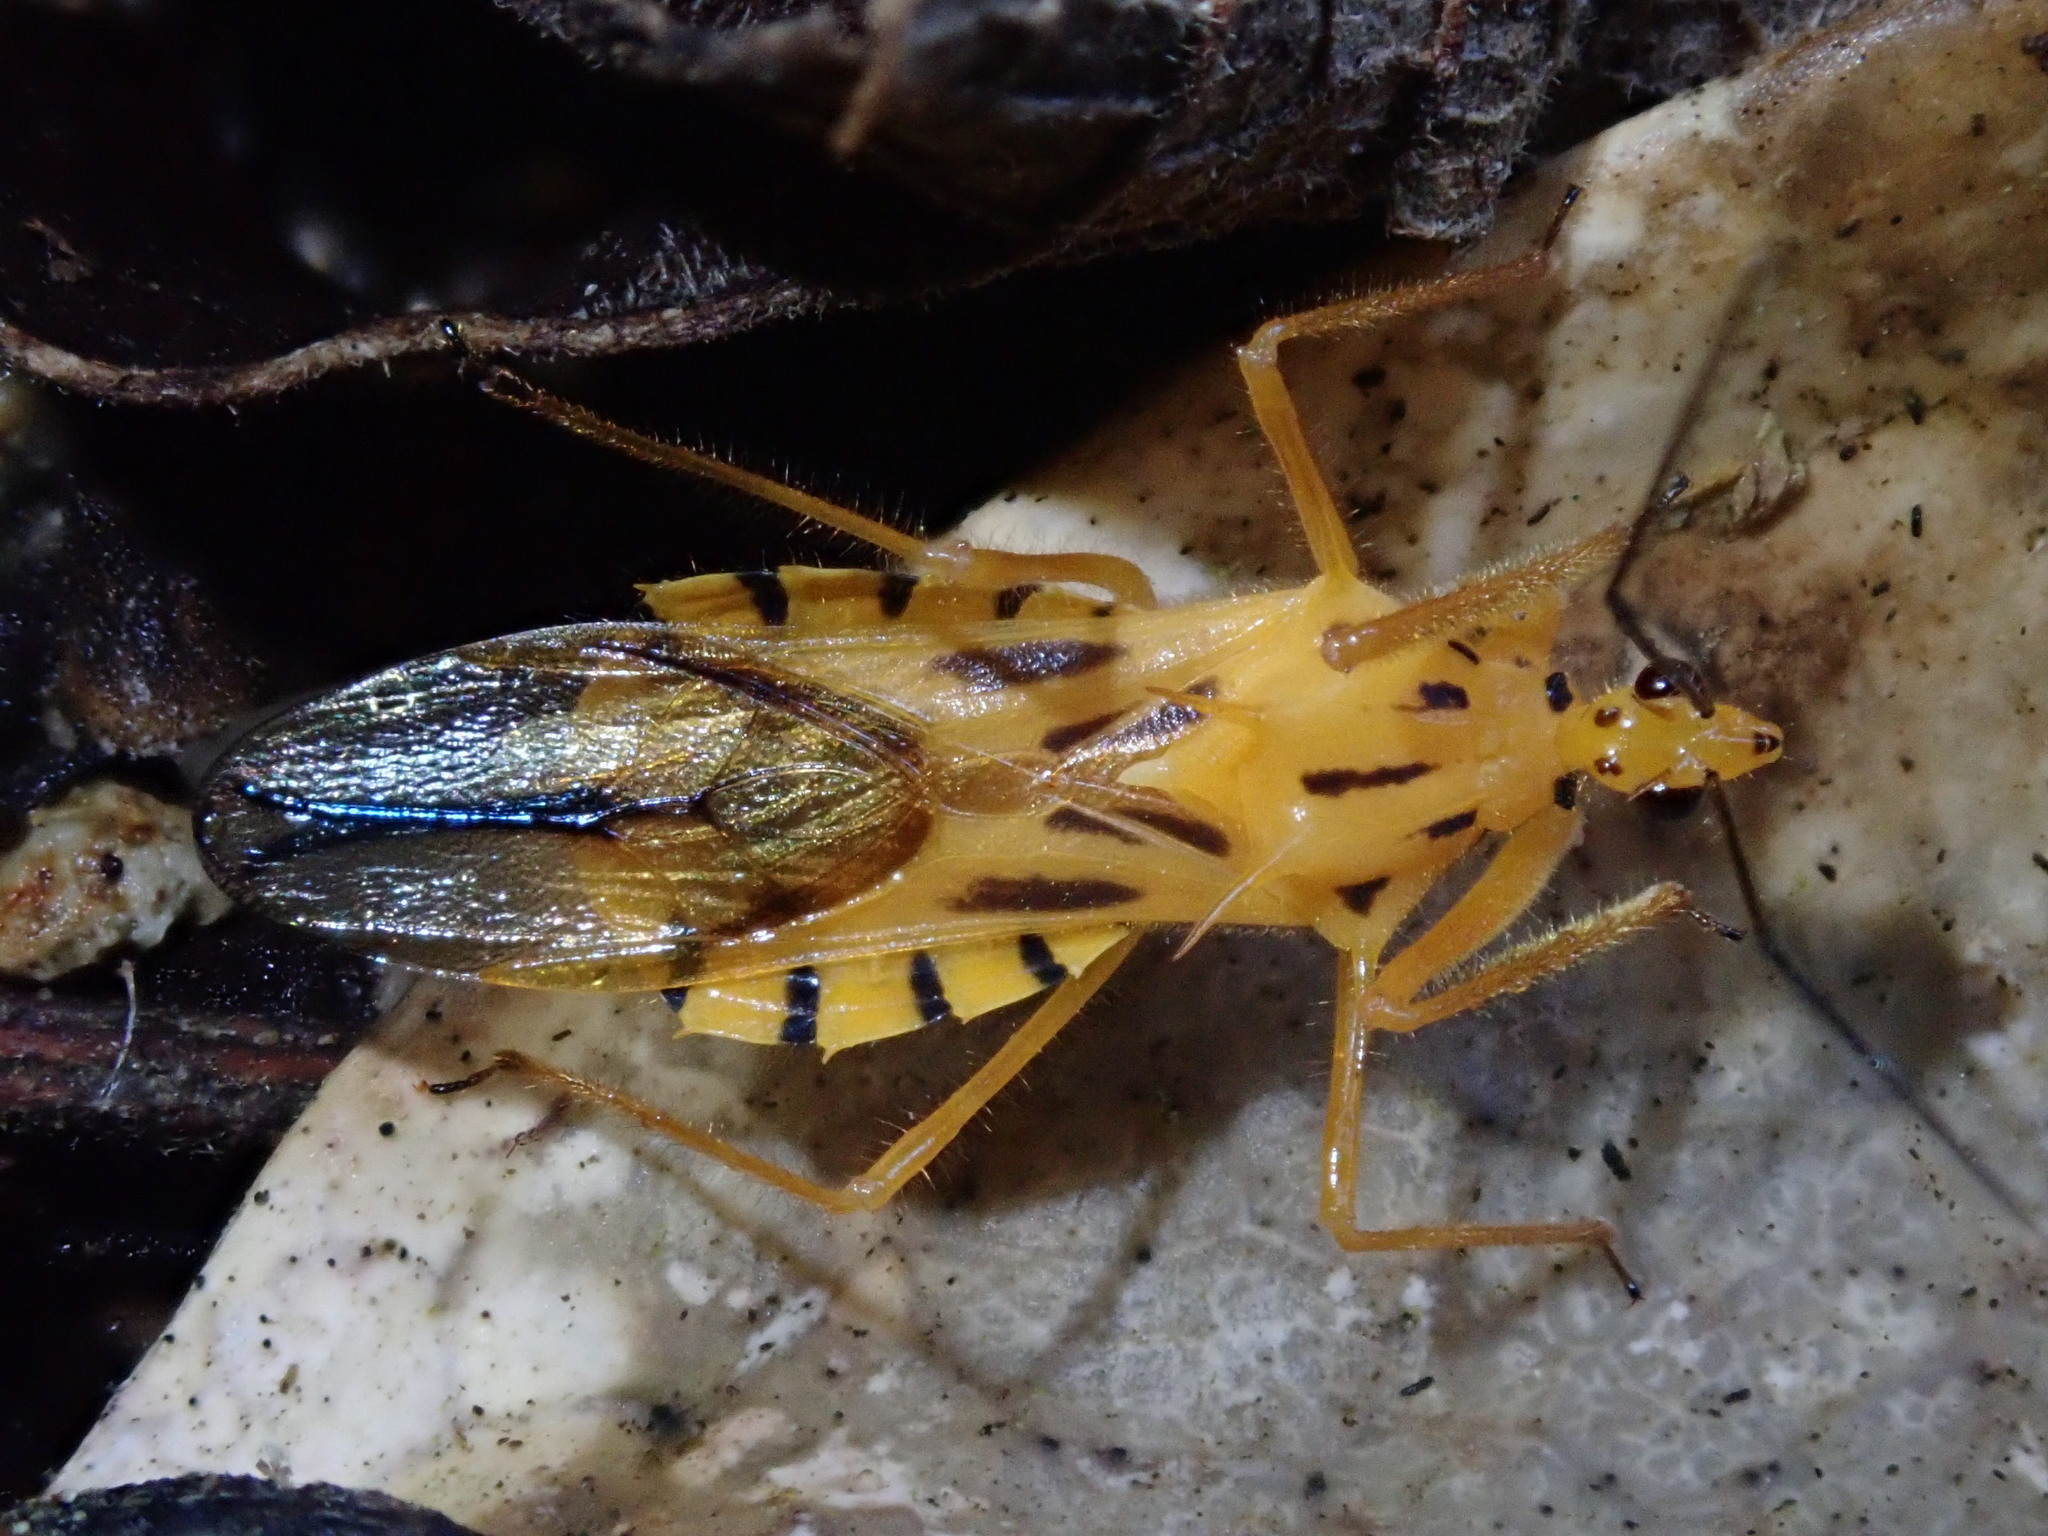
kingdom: Animalia
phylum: Arthropoda
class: Insecta
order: Hemiptera
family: Reduviidae
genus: Corcia
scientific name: Corcia columbica
